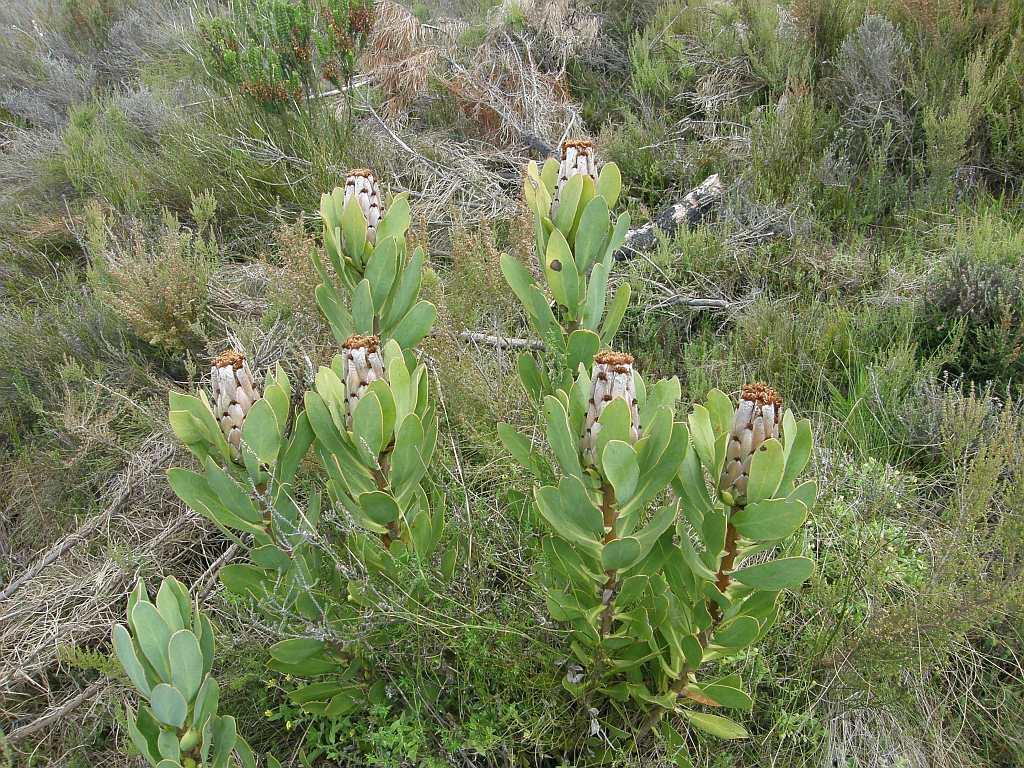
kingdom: Plantae
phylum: Tracheophyta
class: Magnoliopsida
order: Proteales
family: Proteaceae
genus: Protea
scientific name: Protea speciosa
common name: Brown-beard sugarbush
